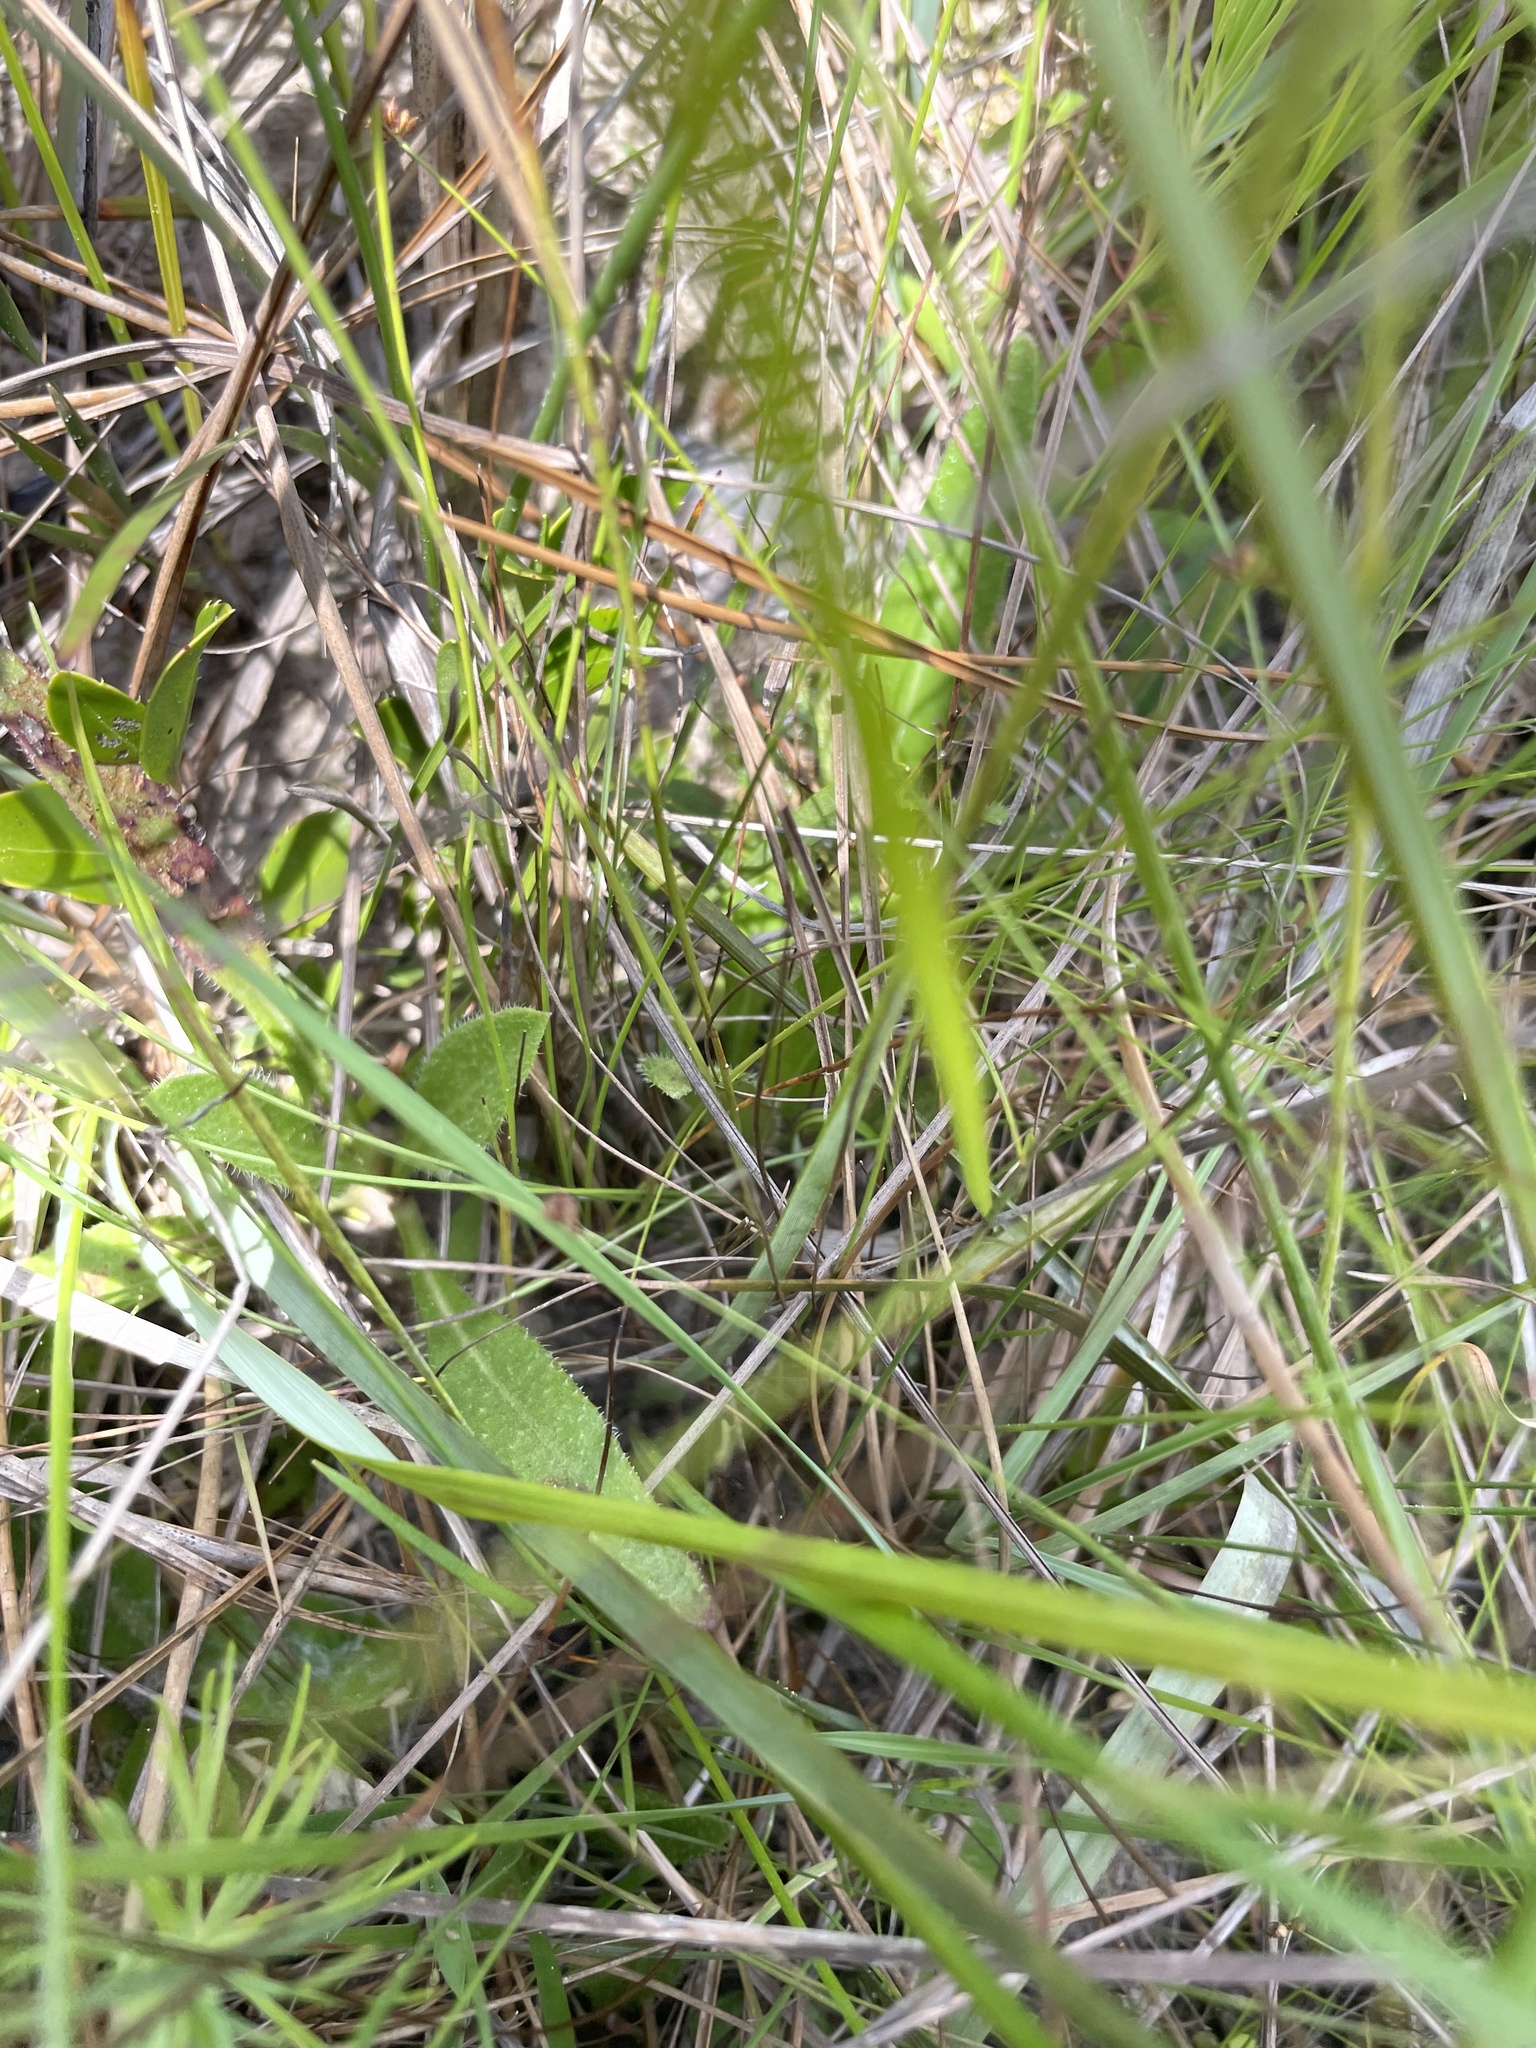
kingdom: Plantae
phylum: Tracheophyta
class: Liliopsida
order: Poales
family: Xyridaceae
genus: Xyris
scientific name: Xyris baldwiniana
